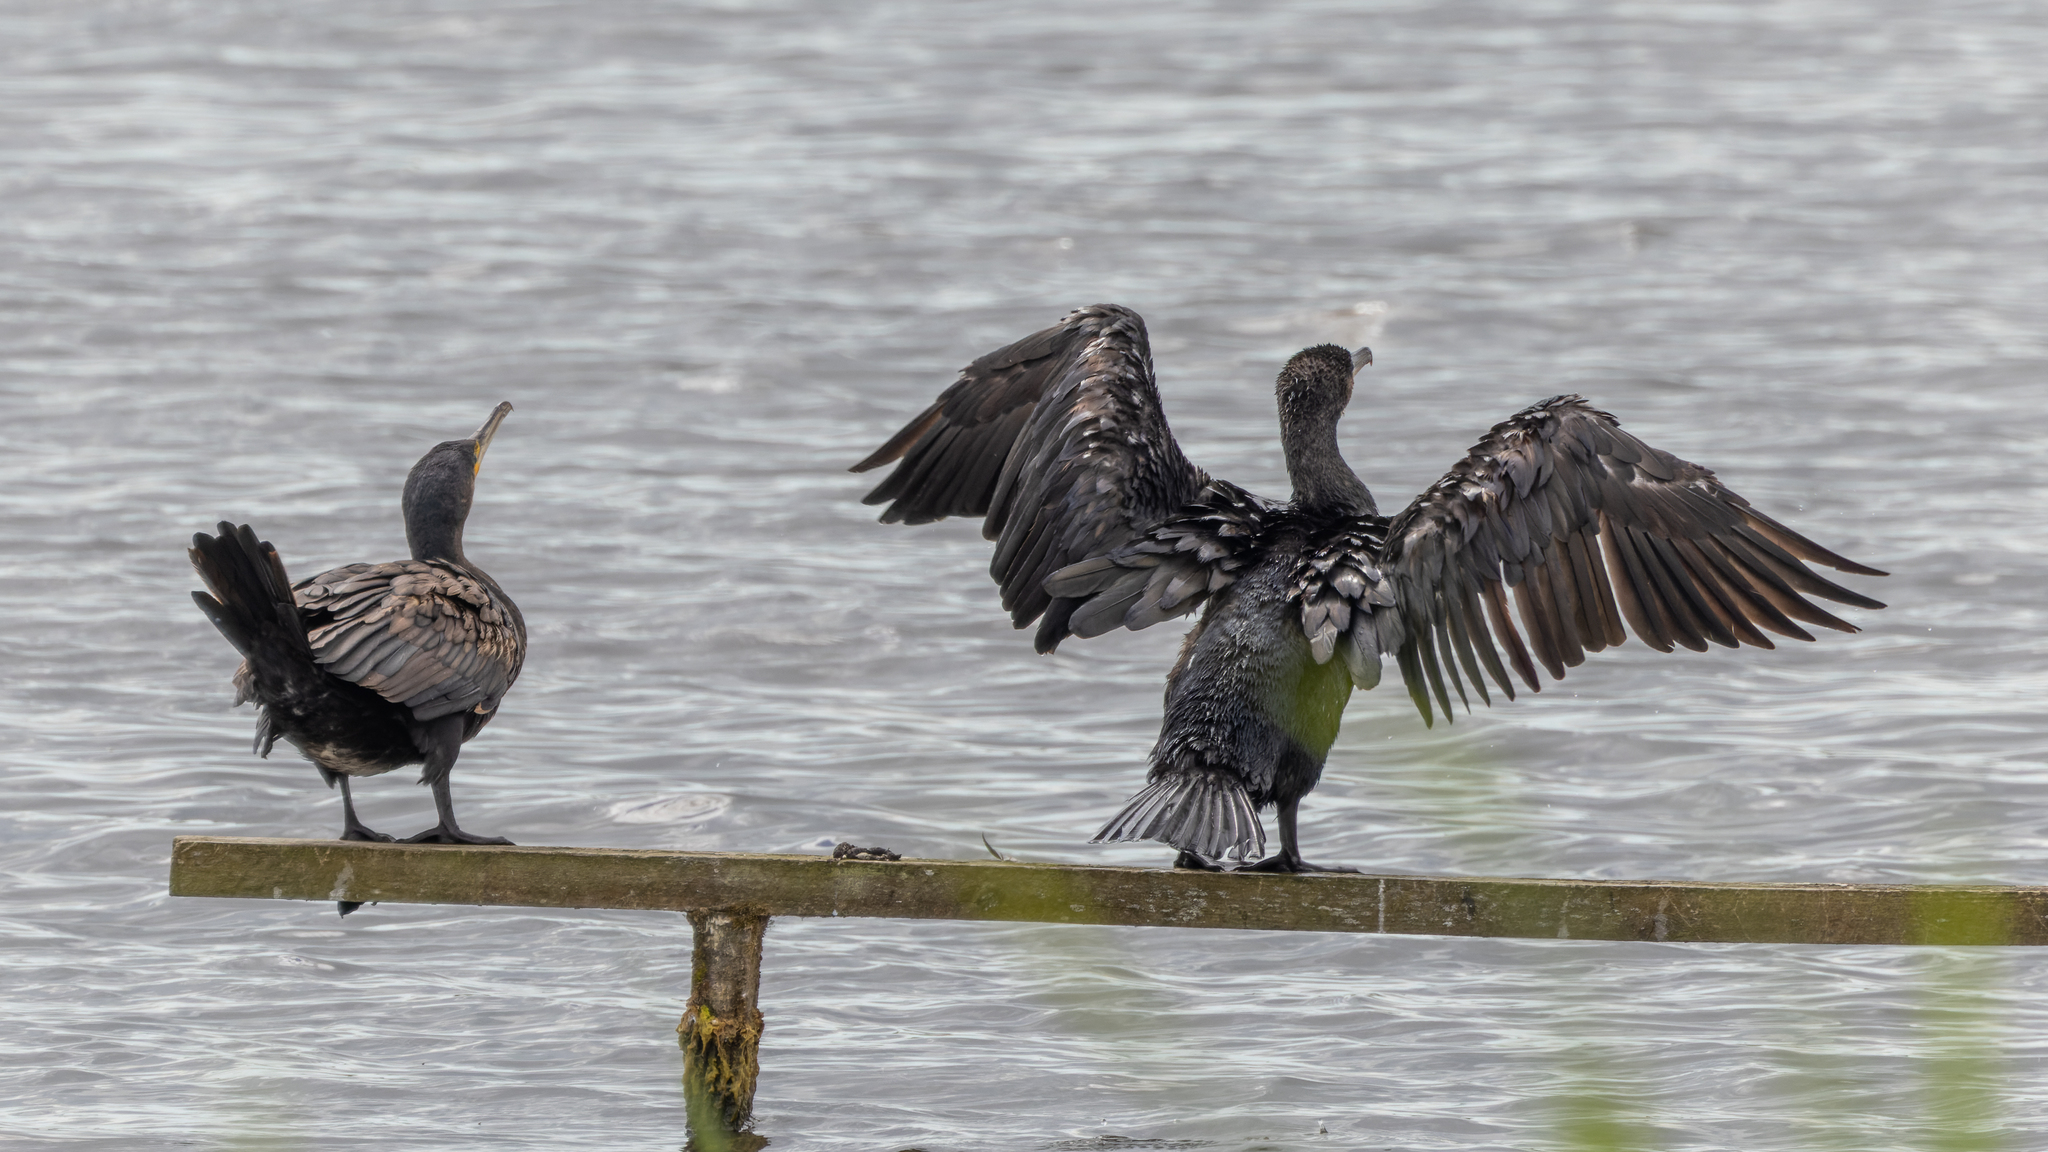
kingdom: Animalia
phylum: Chordata
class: Aves
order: Suliformes
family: Phalacrocoracidae
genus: Phalacrocorax
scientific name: Phalacrocorax carbo
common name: Great cormorant
